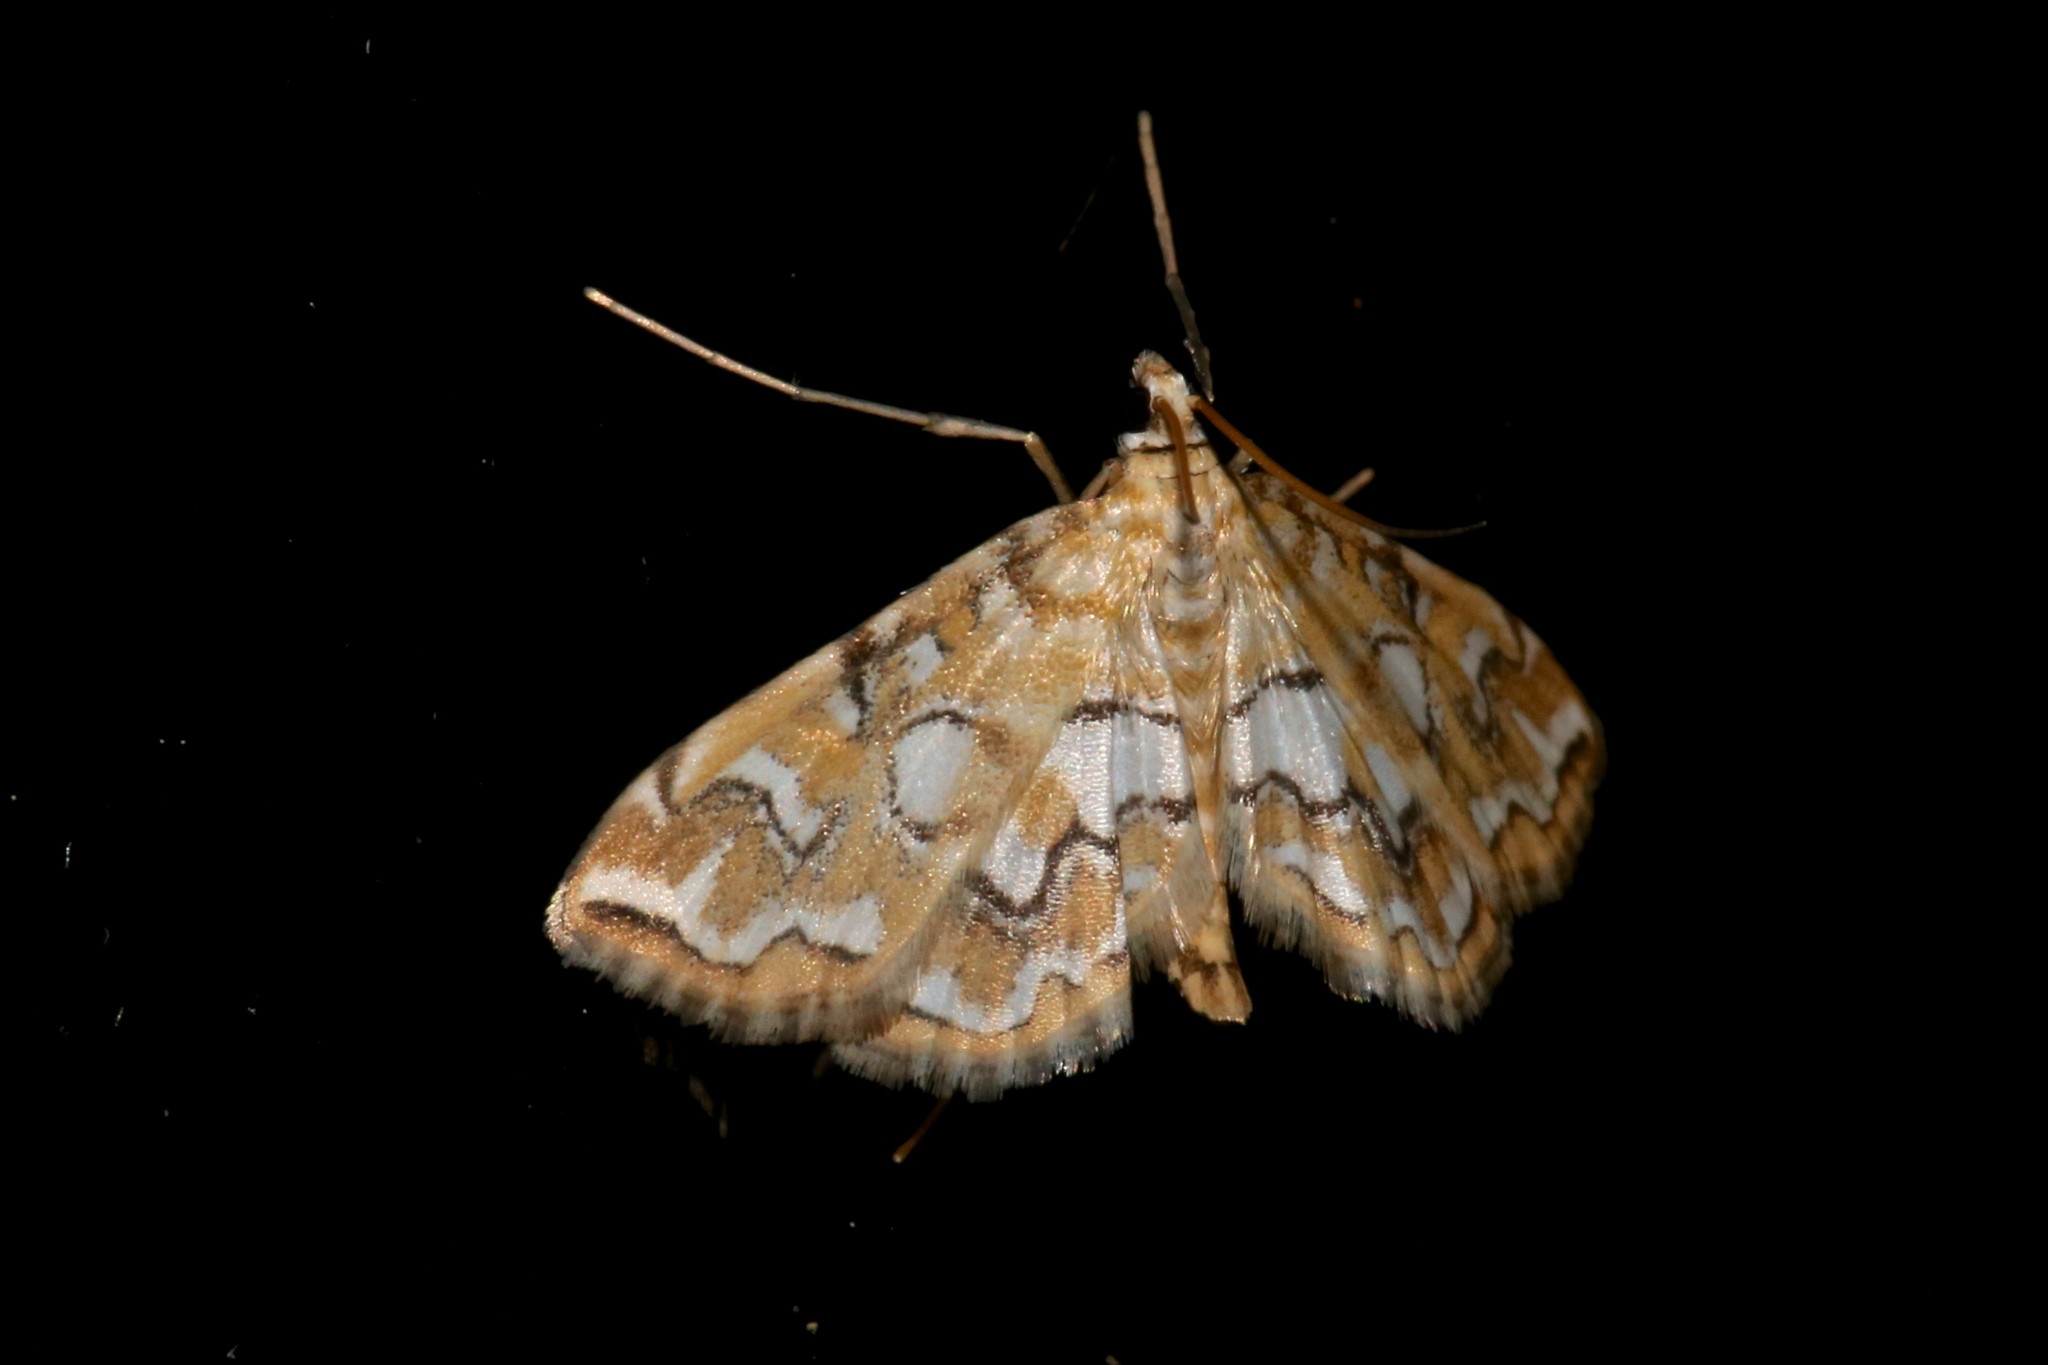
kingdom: Animalia
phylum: Arthropoda
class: Insecta
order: Lepidoptera
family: Crambidae
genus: Elophila
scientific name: Elophila icciusalis
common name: Pondside pyralid moth
